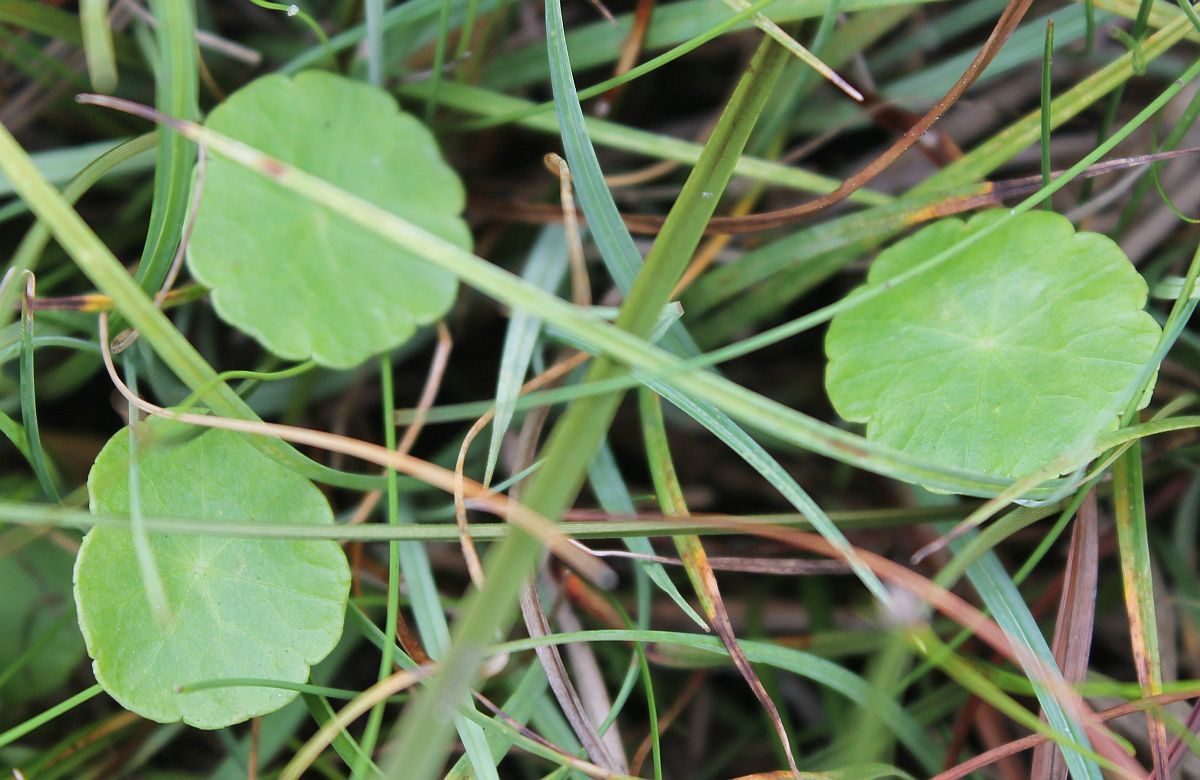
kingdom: Plantae
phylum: Tracheophyta
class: Magnoliopsida
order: Apiales
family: Araliaceae
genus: Hydrocotyle
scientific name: Hydrocotyle vulgaris
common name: Marsh pennywort
